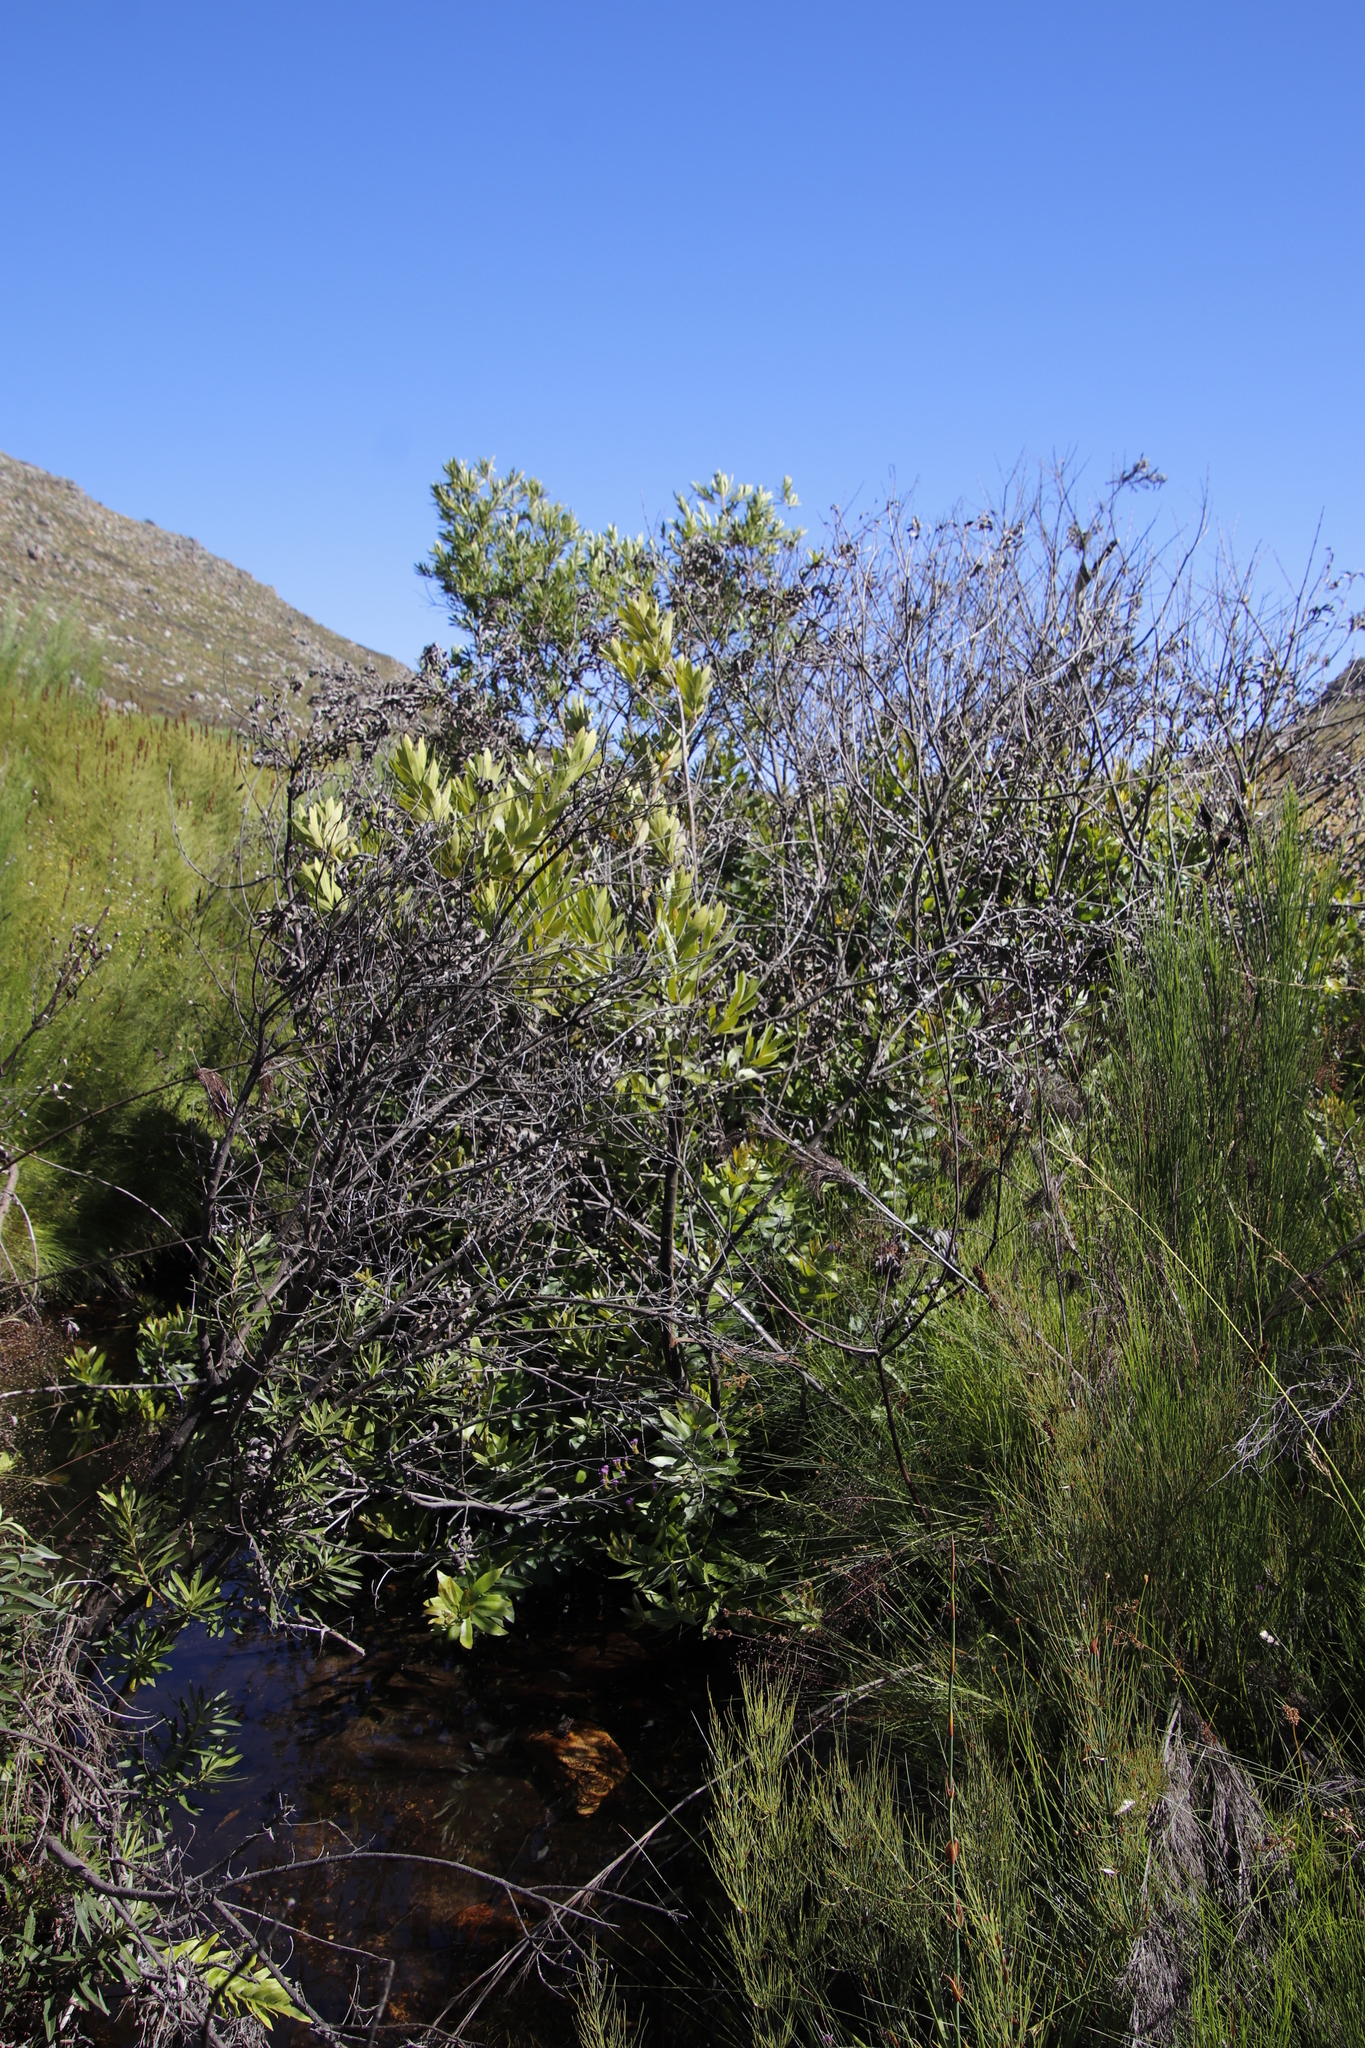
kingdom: Plantae
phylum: Tracheophyta
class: Magnoliopsida
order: Asterales
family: Asteraceae
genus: Brachylaena
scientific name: Brachylaena neriifolia
